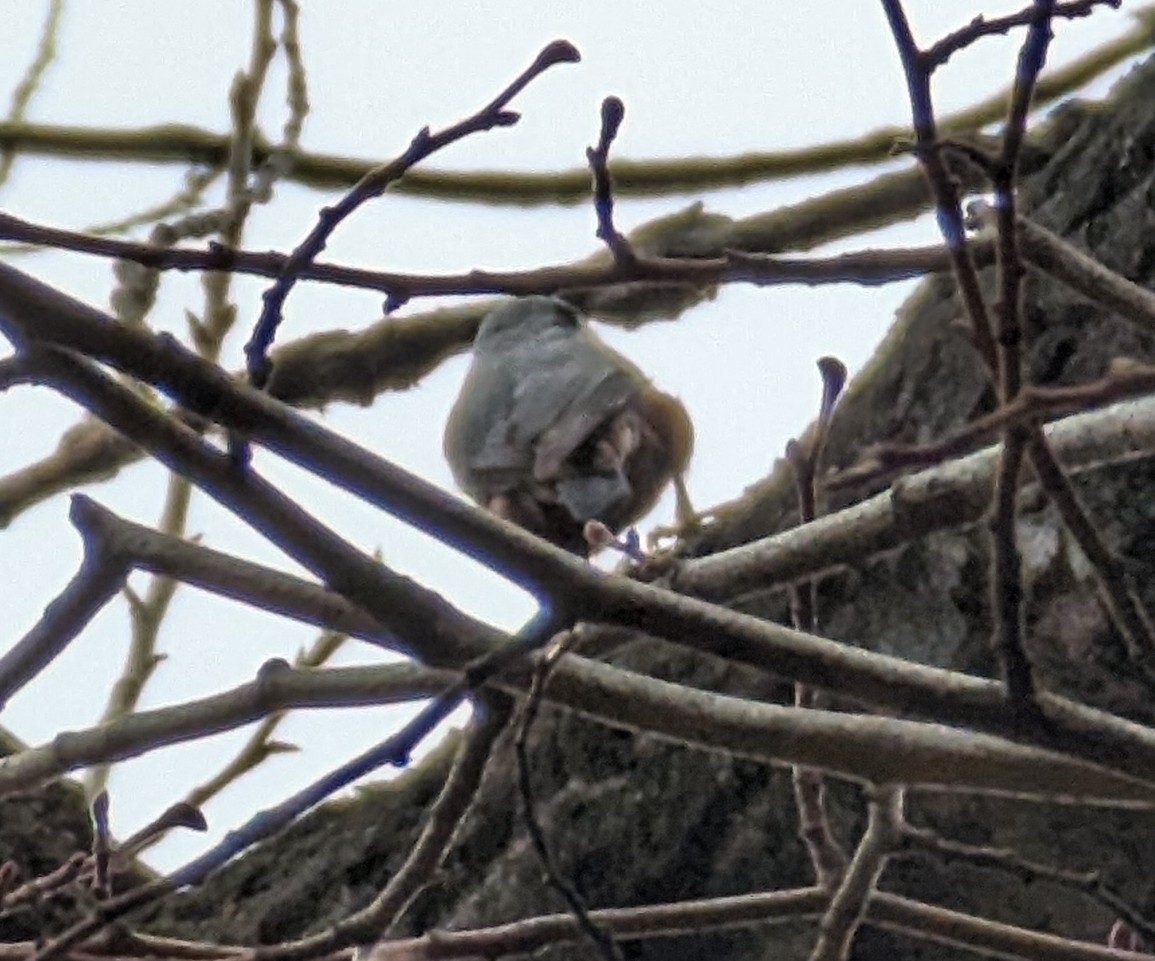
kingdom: Animalia
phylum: Chordata
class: Aves
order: Passeriformes
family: Sittidae
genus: Sitta
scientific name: Sitta europaea
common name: Eurasian nuthatch
